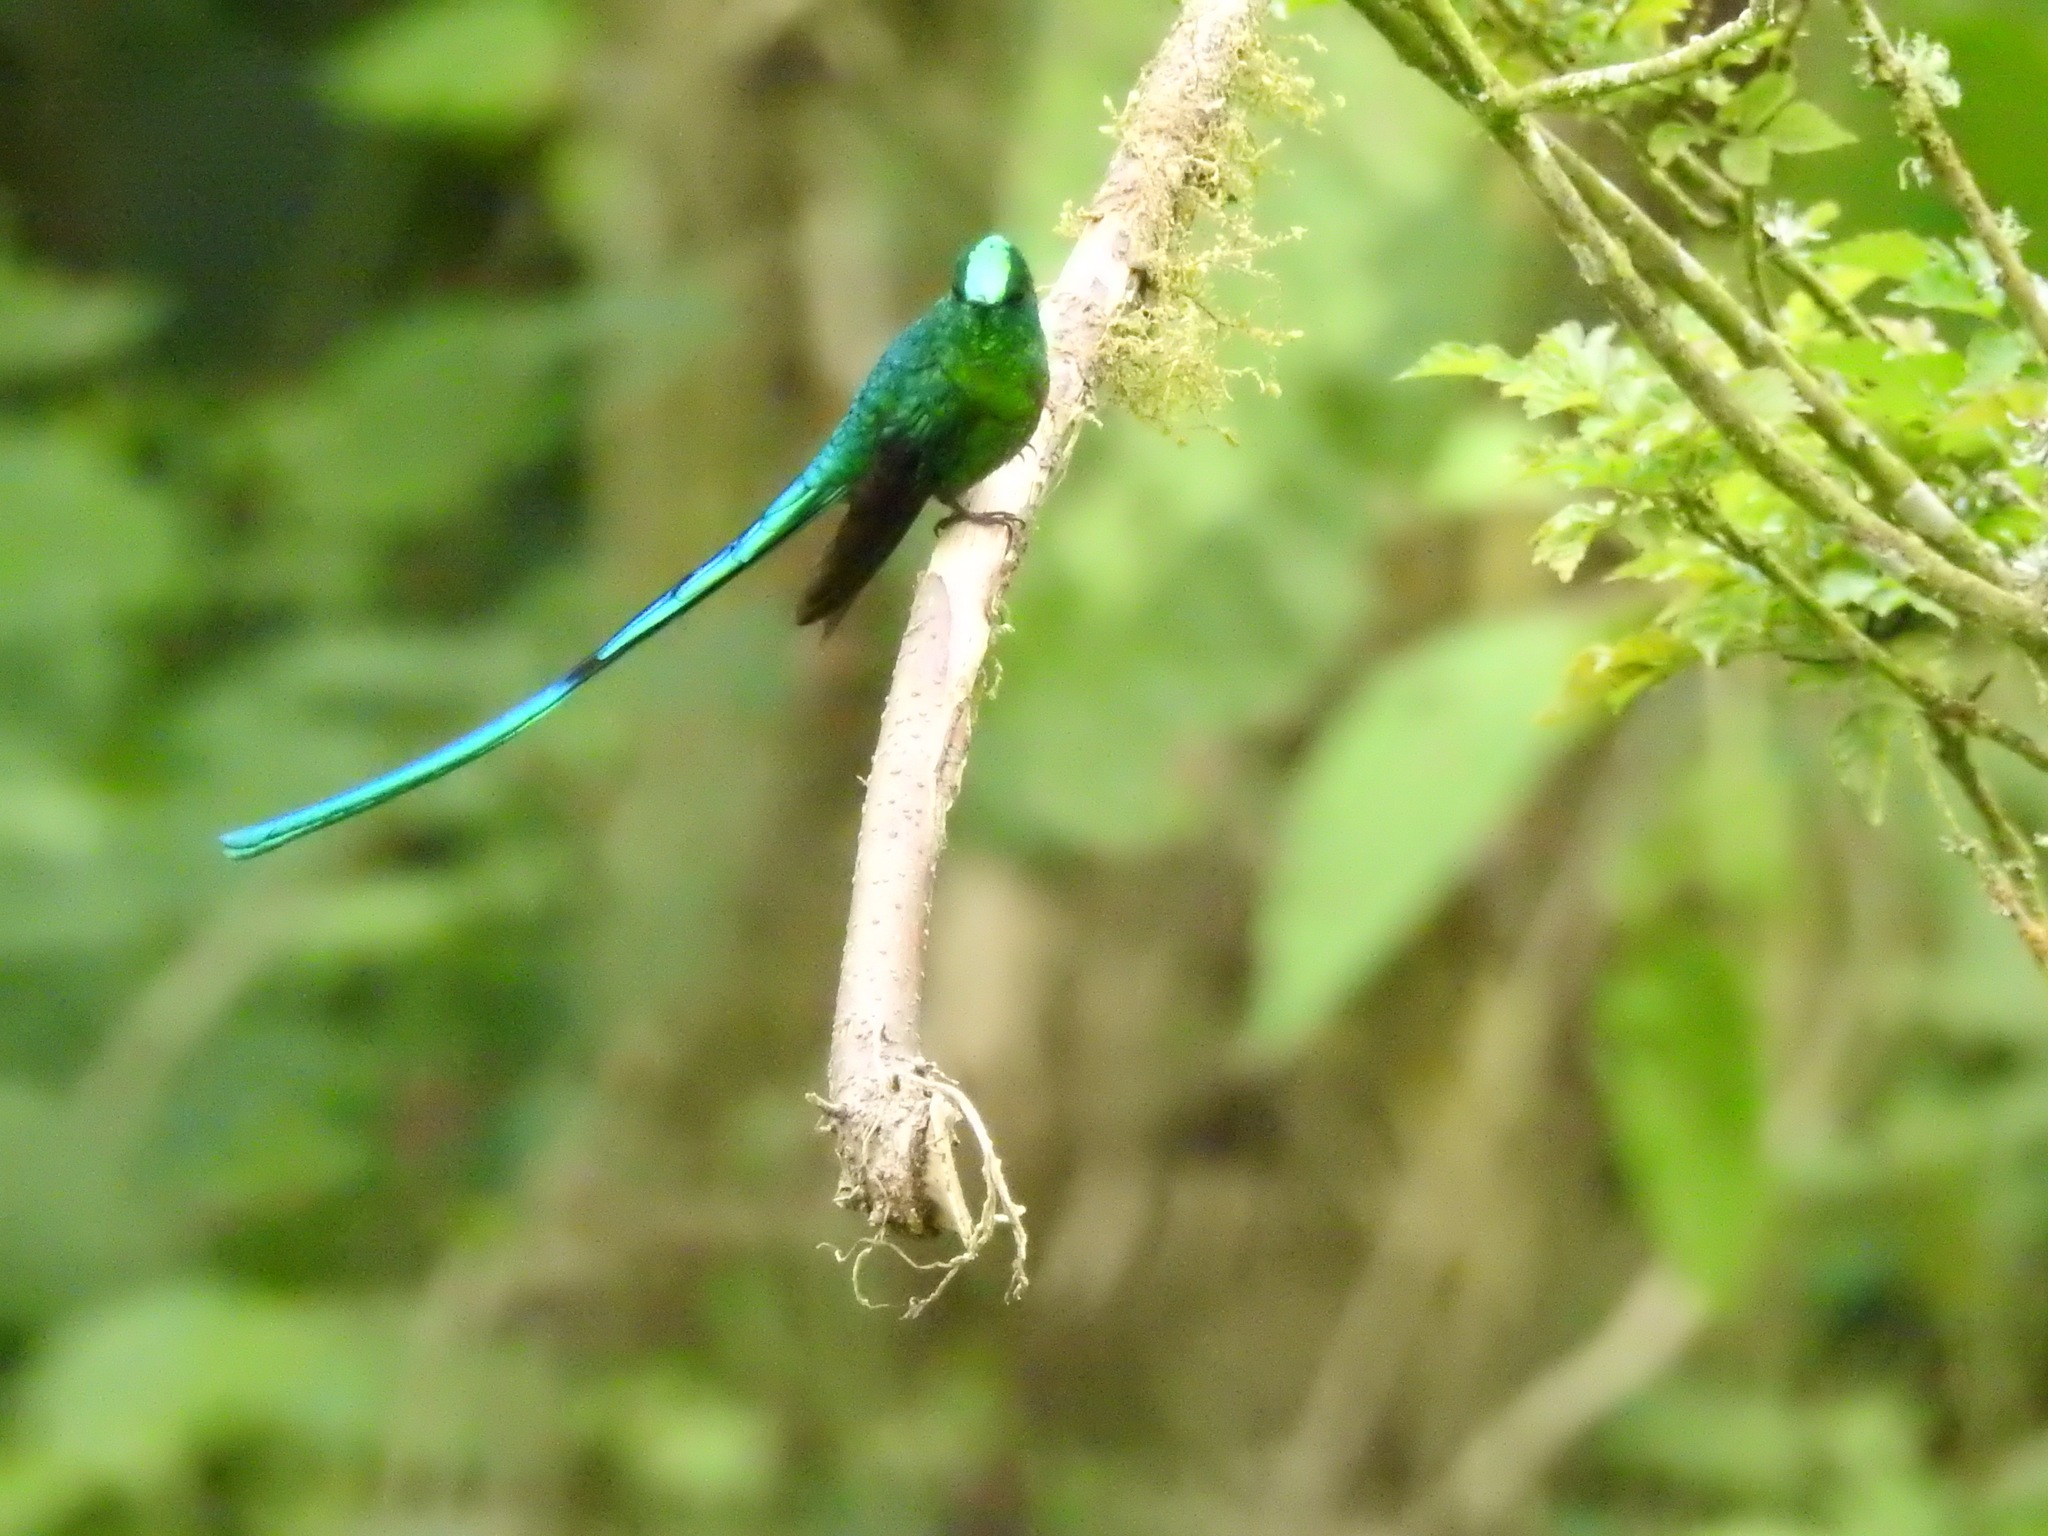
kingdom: Animalia
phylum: Chordata
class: Aves
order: Apodiformes
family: Trochilidae
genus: Aglaiocercus
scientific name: Aglaiocercus kingii
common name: Long-tailed sylph
